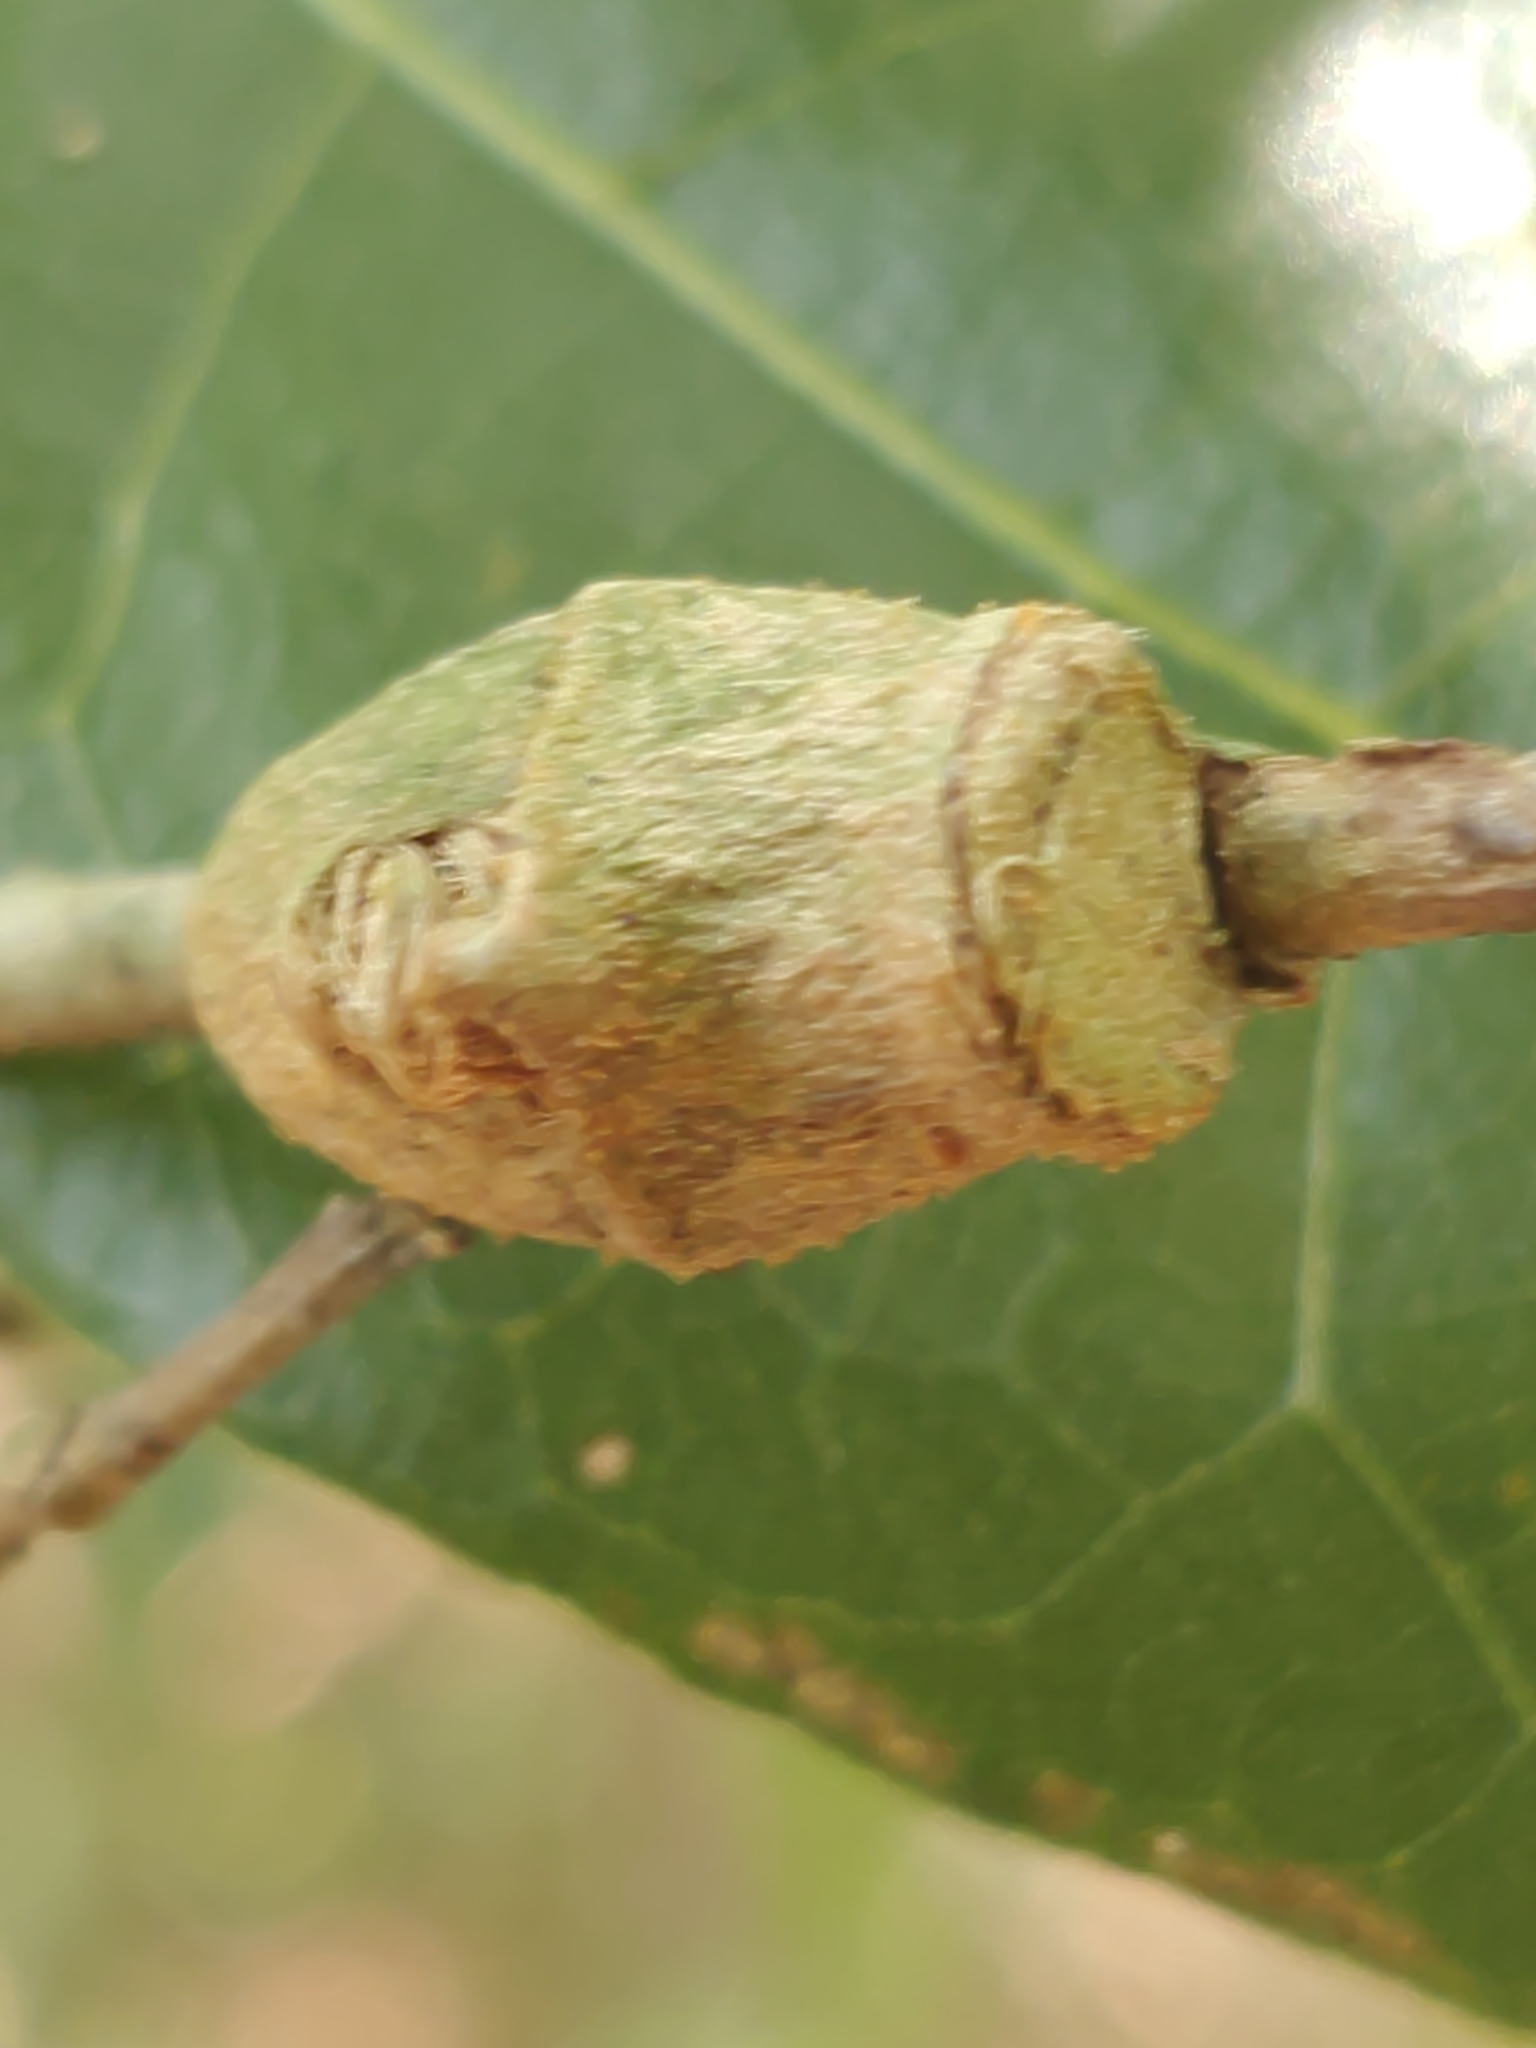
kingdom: Animalia
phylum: Arthropoda
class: Insecta
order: Lepidoptera
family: Megalopygidae
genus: Megalopyge
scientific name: Megalopyge
